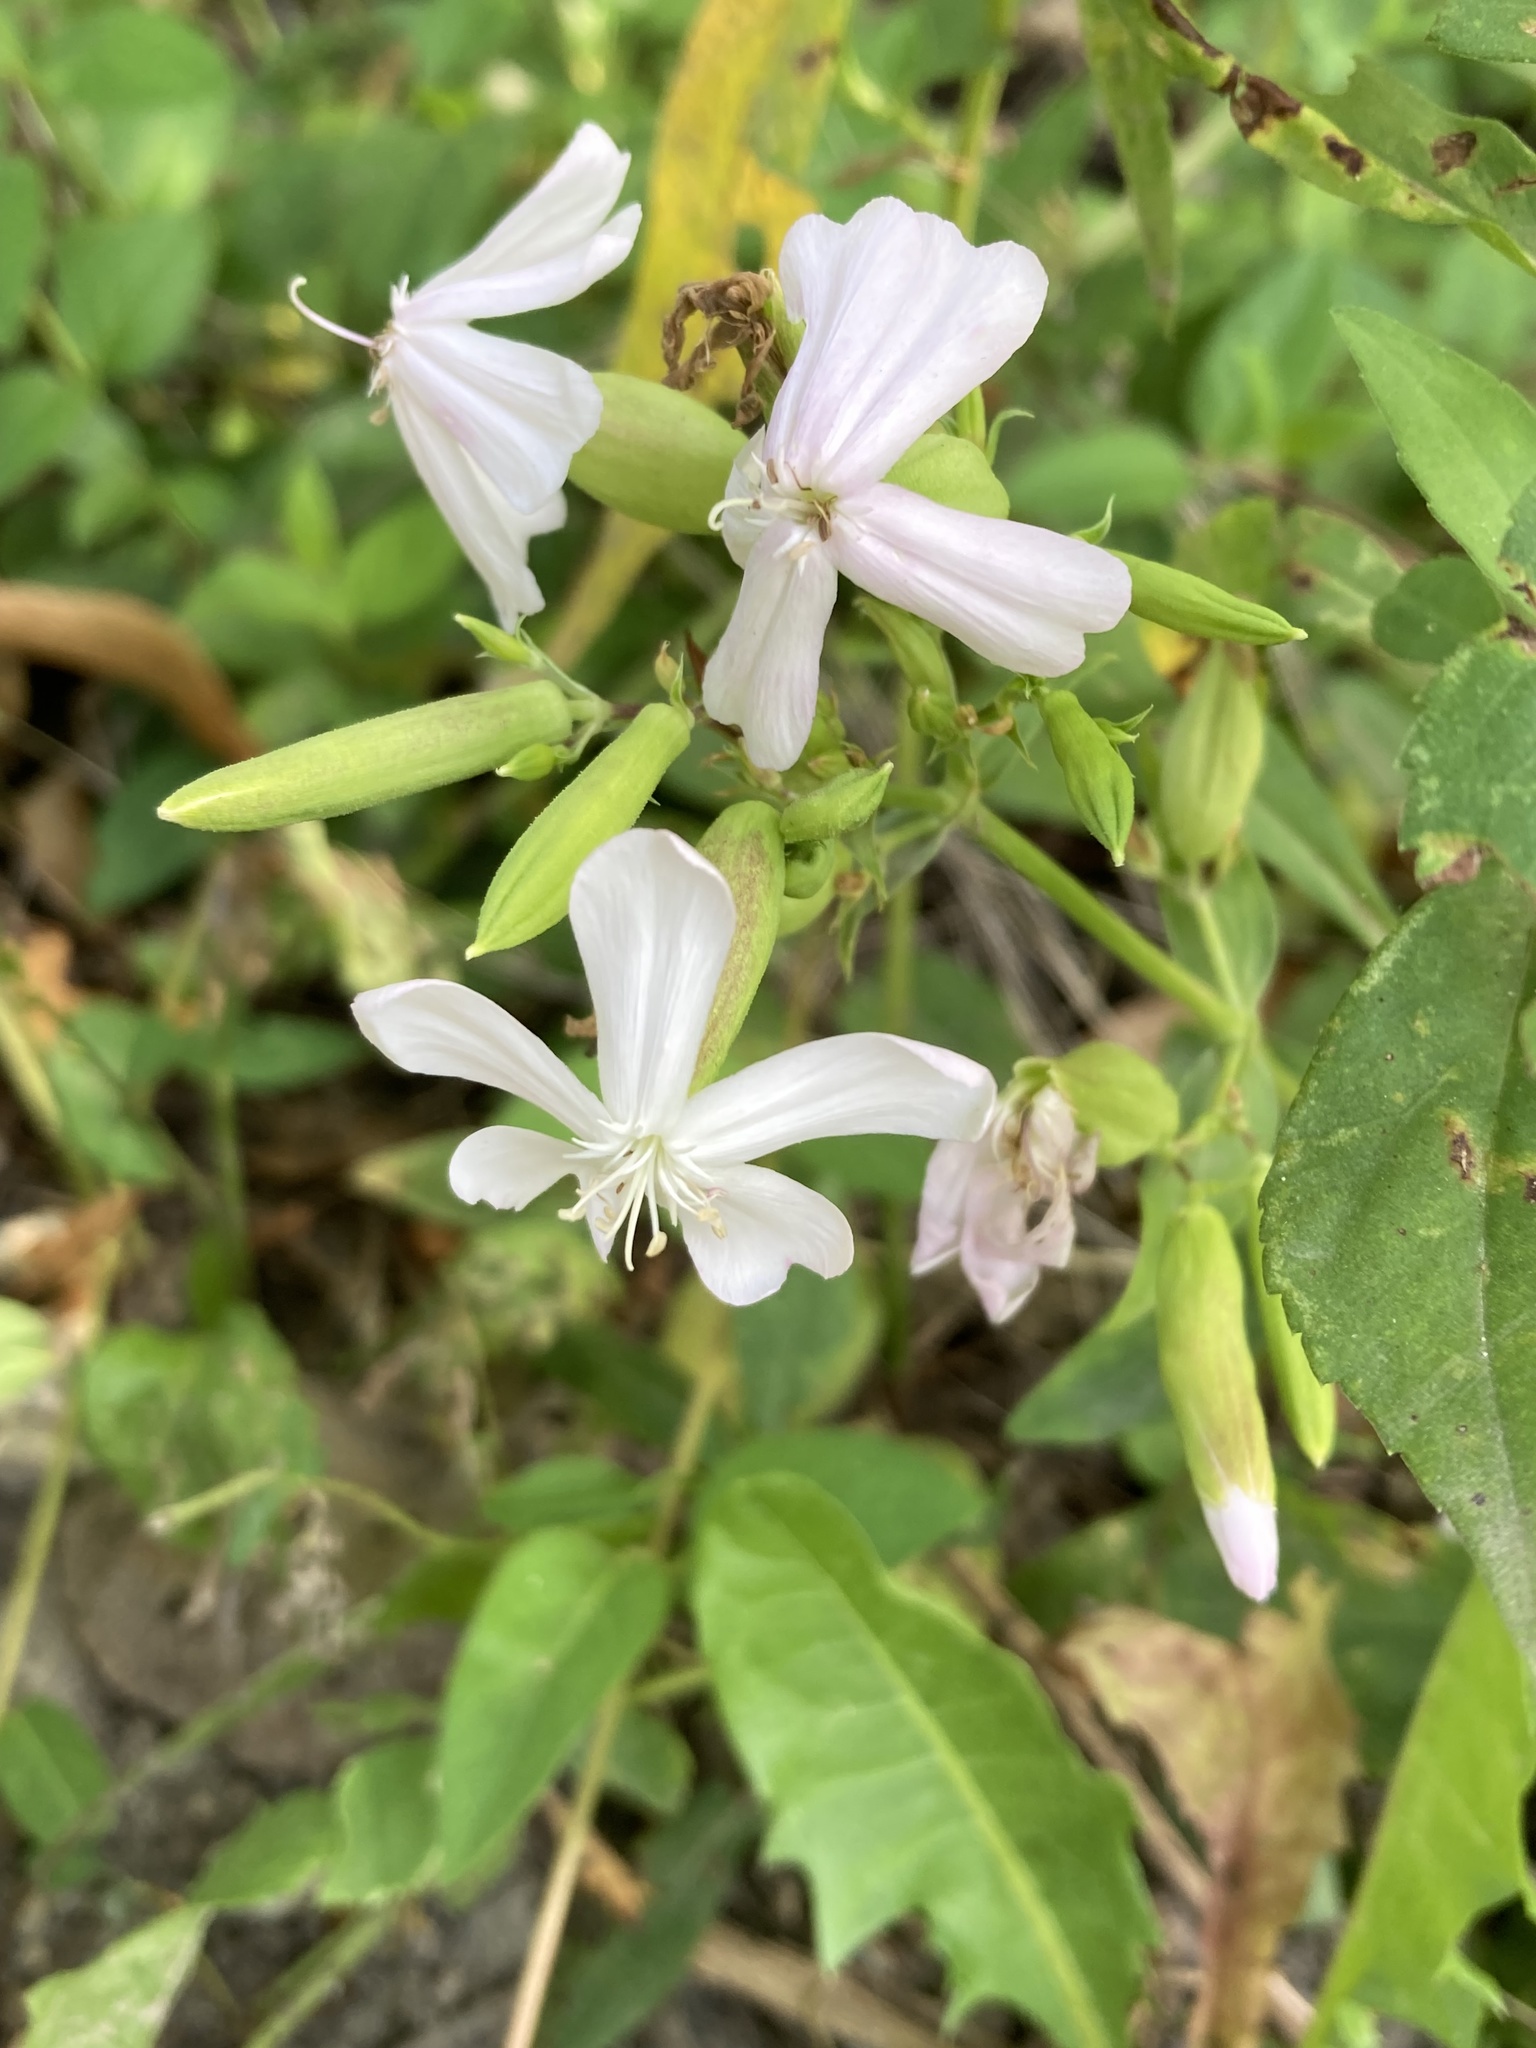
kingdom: Plantae
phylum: Tracheophyta
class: Magnoliopsida
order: Caryophyllales
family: Caryophyllaceae
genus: Saponaria
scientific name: Saponaria officinalis
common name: Soapwort
